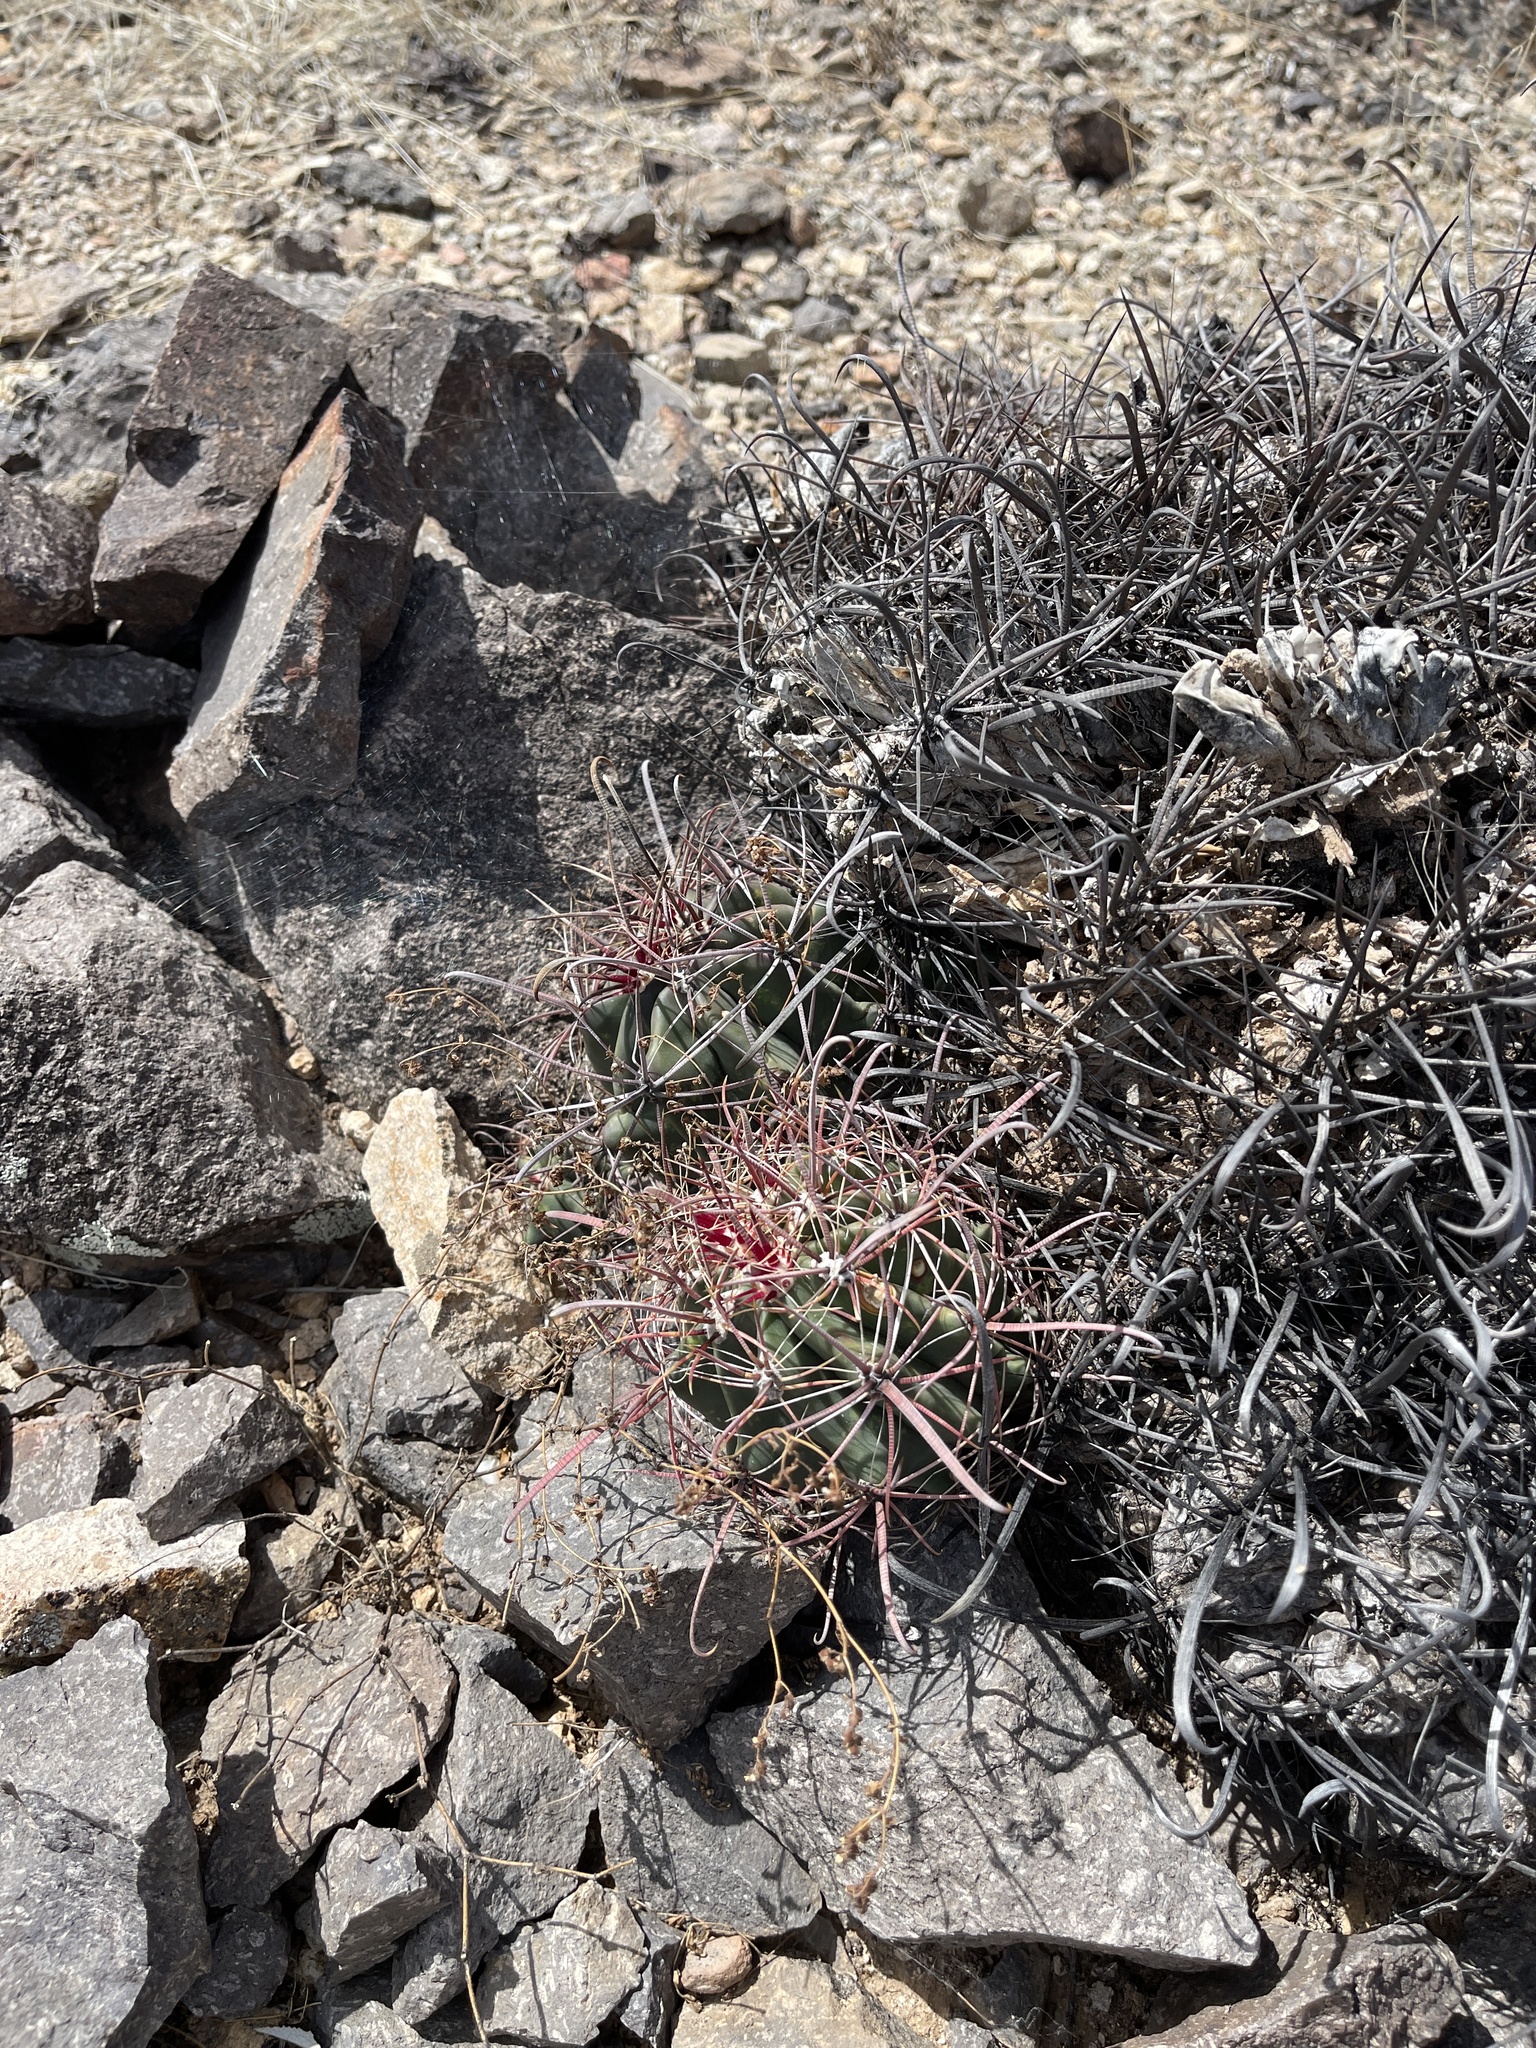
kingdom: Plantae
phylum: Tracheophyta
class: Magnoliopsida
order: Caryophyllales
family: Cactaceae
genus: Ferocactus
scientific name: Ferocactus wislizeni
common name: Candy barrel cactus
